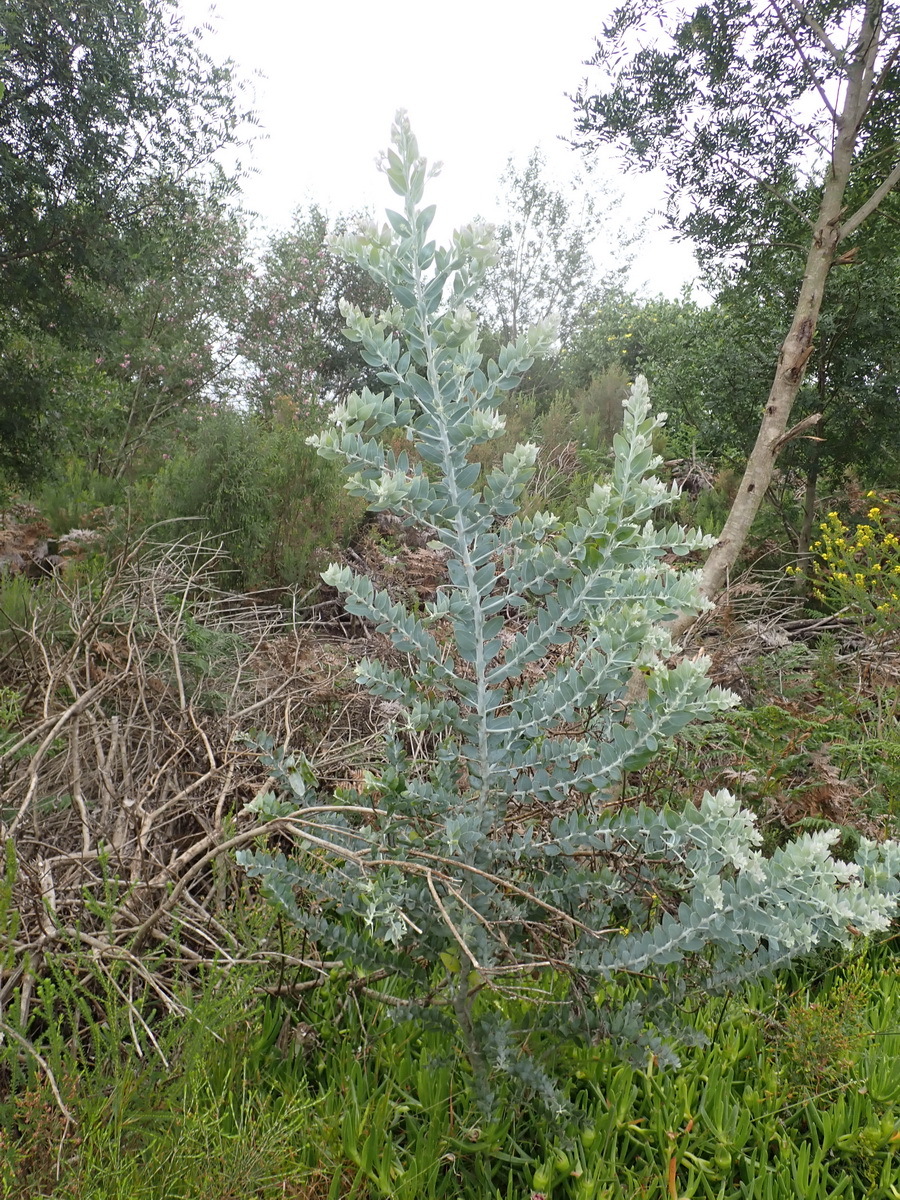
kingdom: Plantae
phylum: Tracheophyta
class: Magnoliopsida
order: Fabales
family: Fabaceae
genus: Acacia
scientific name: Acacia podalyriifolia
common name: Pearl wattle
